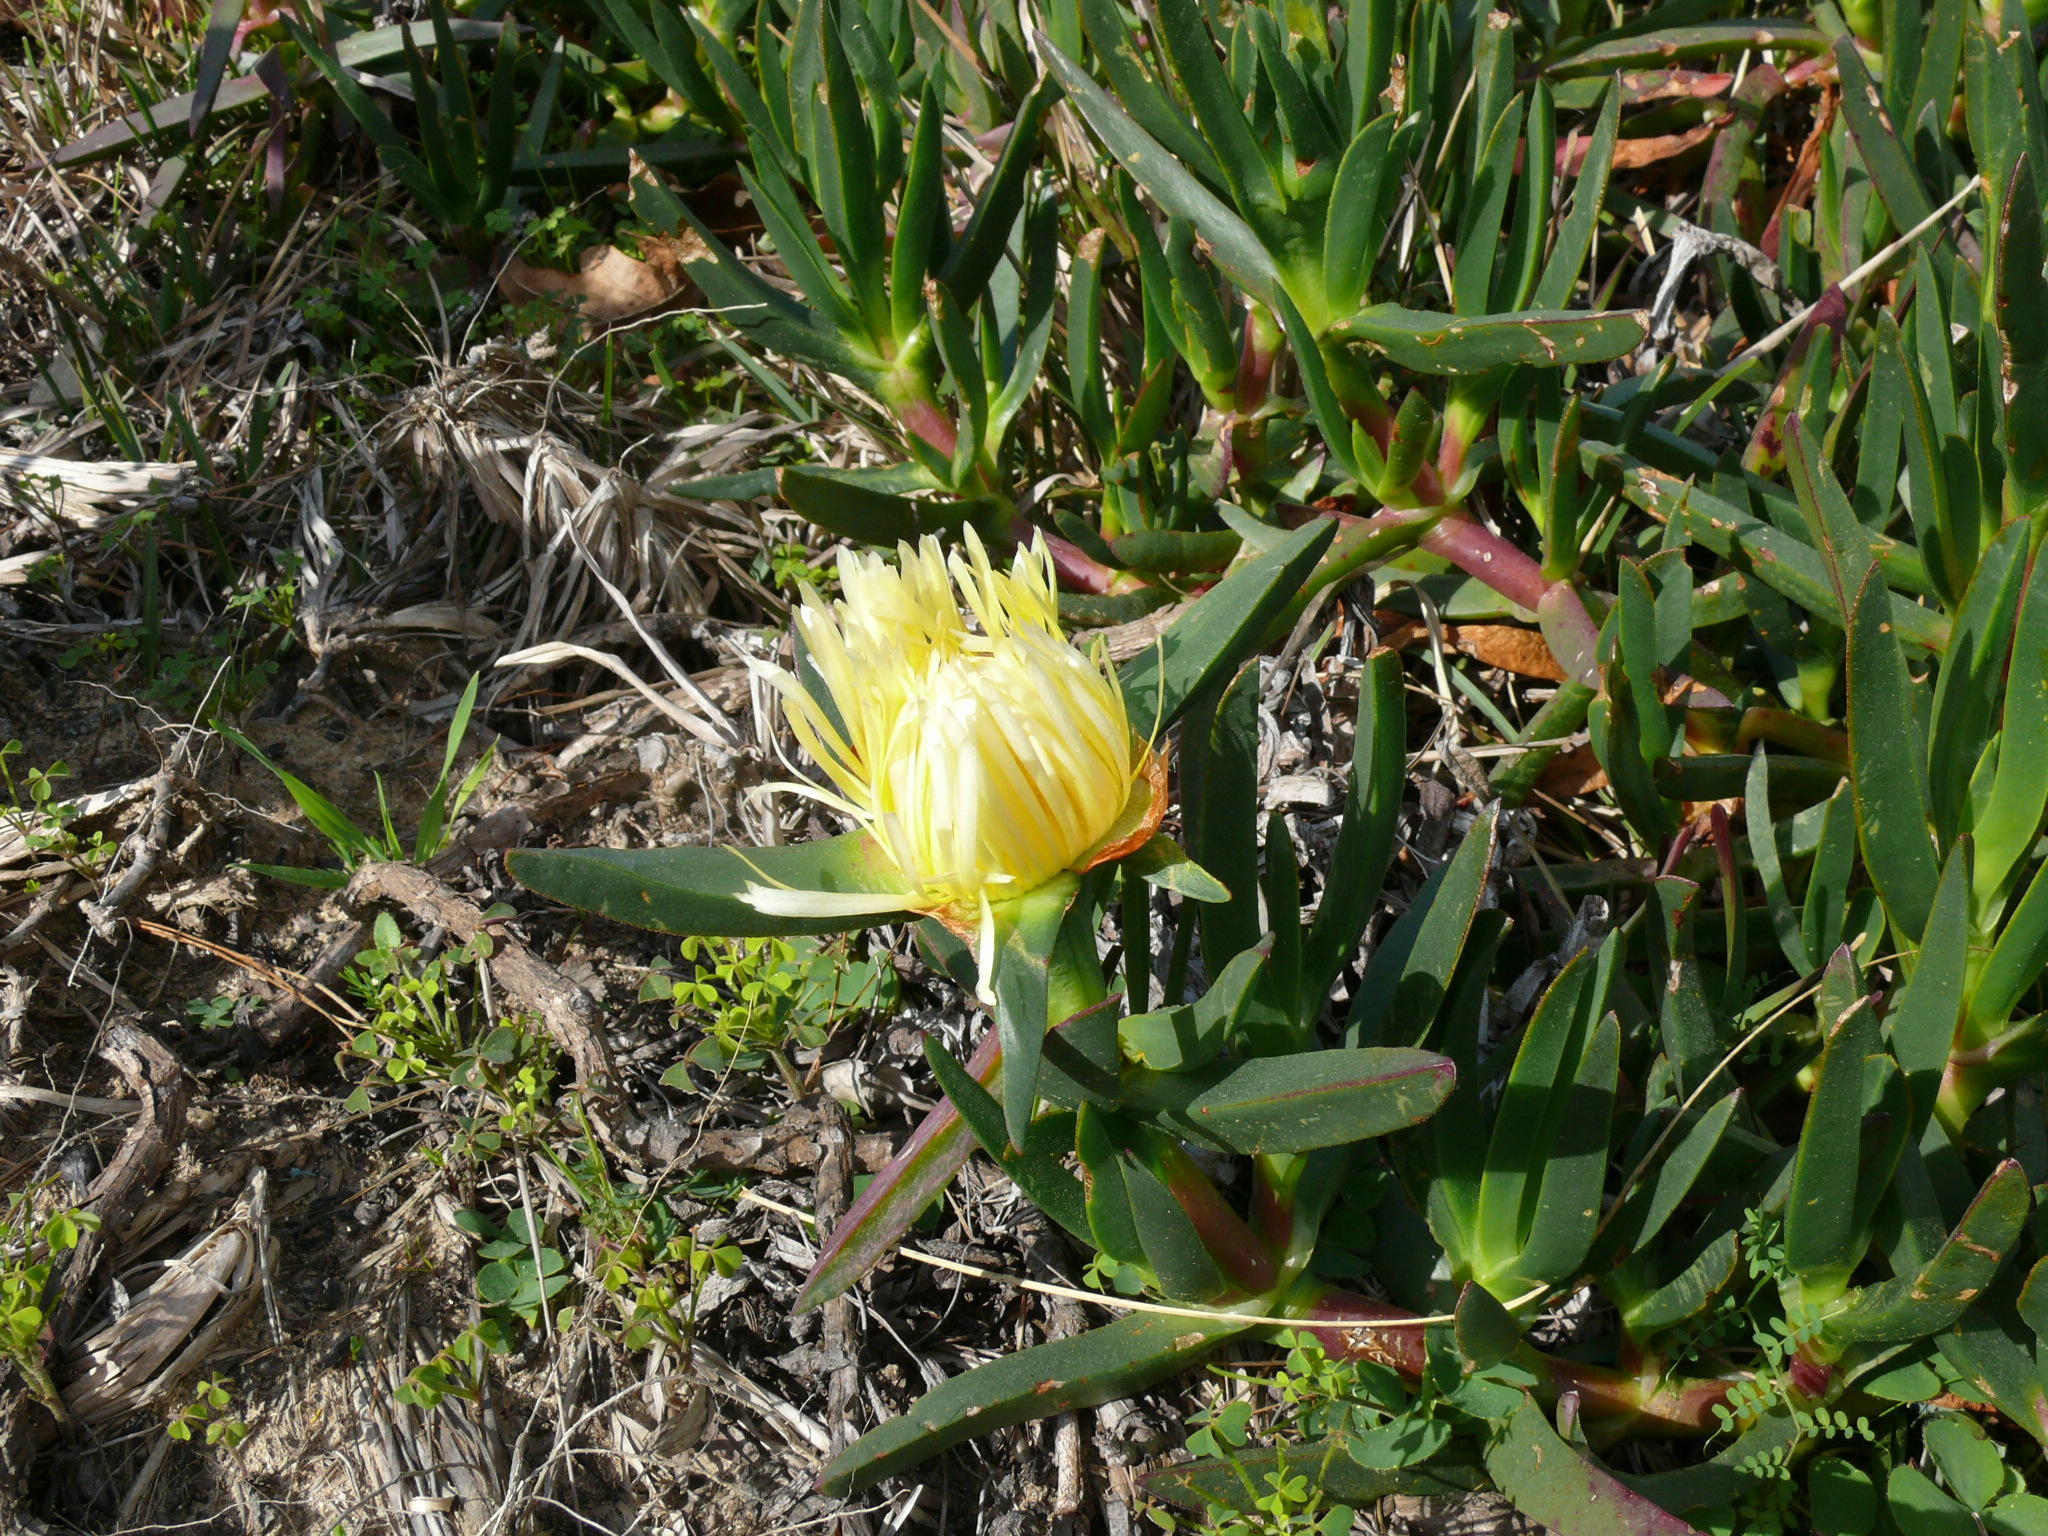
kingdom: Plantae
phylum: Tracheophyta
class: Magnoliopsida
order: Caryophyllales
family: Aizoaceae
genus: Carpobrotus
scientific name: Carpobrotus edulis
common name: Hottentot-fig
